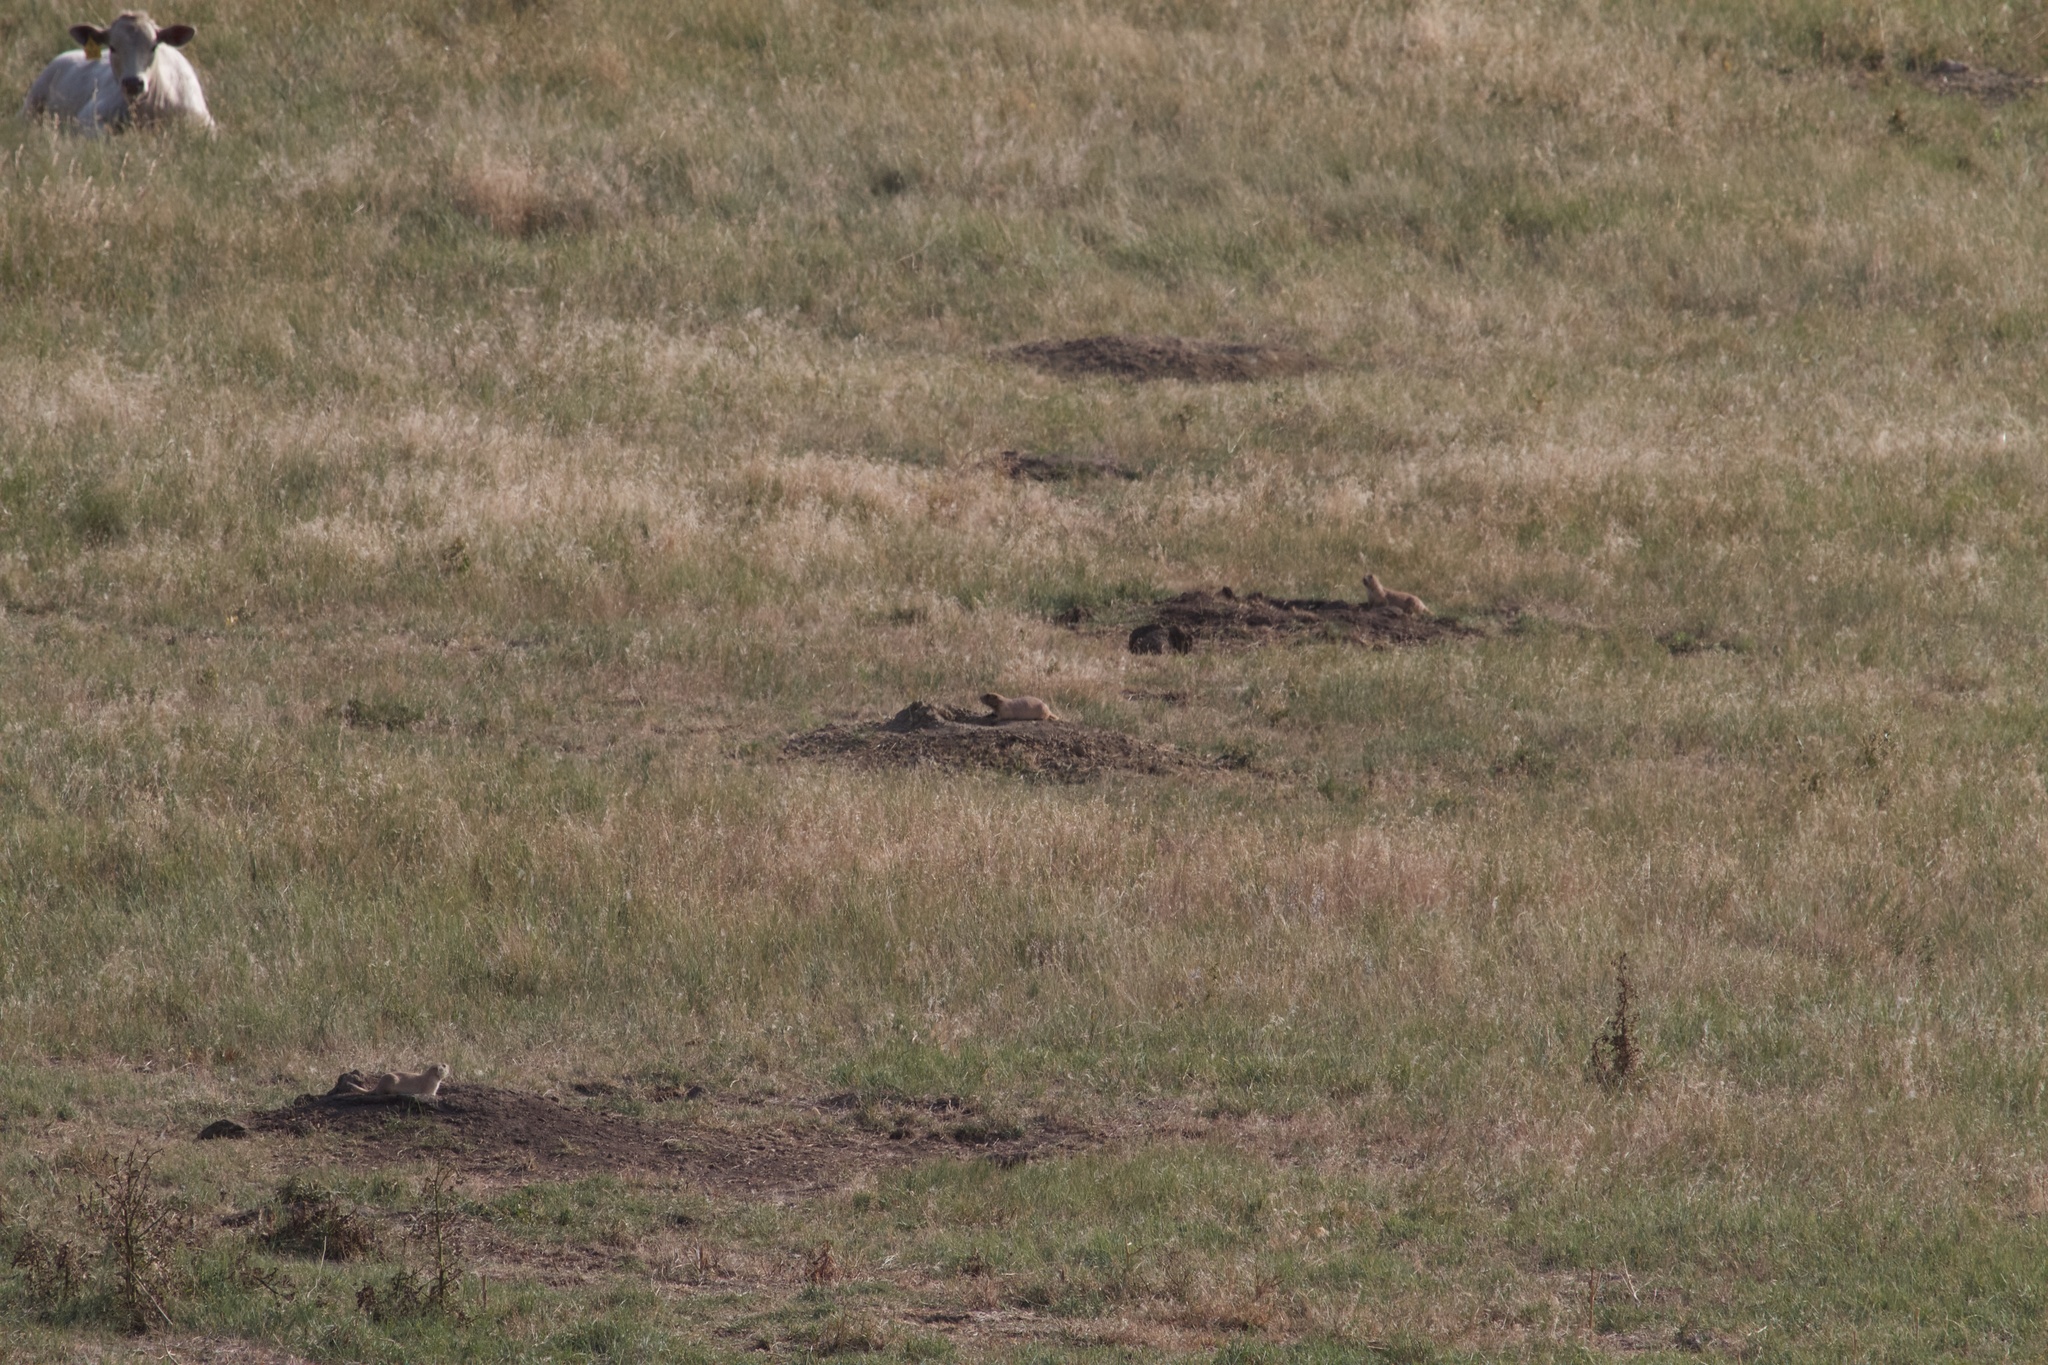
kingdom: Animalia
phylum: Chordata
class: Mammalia
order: Rodentia
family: Sciuridae
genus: Cynomys
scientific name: Cynomys ludovicianus
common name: Black-tailed prairie dog
